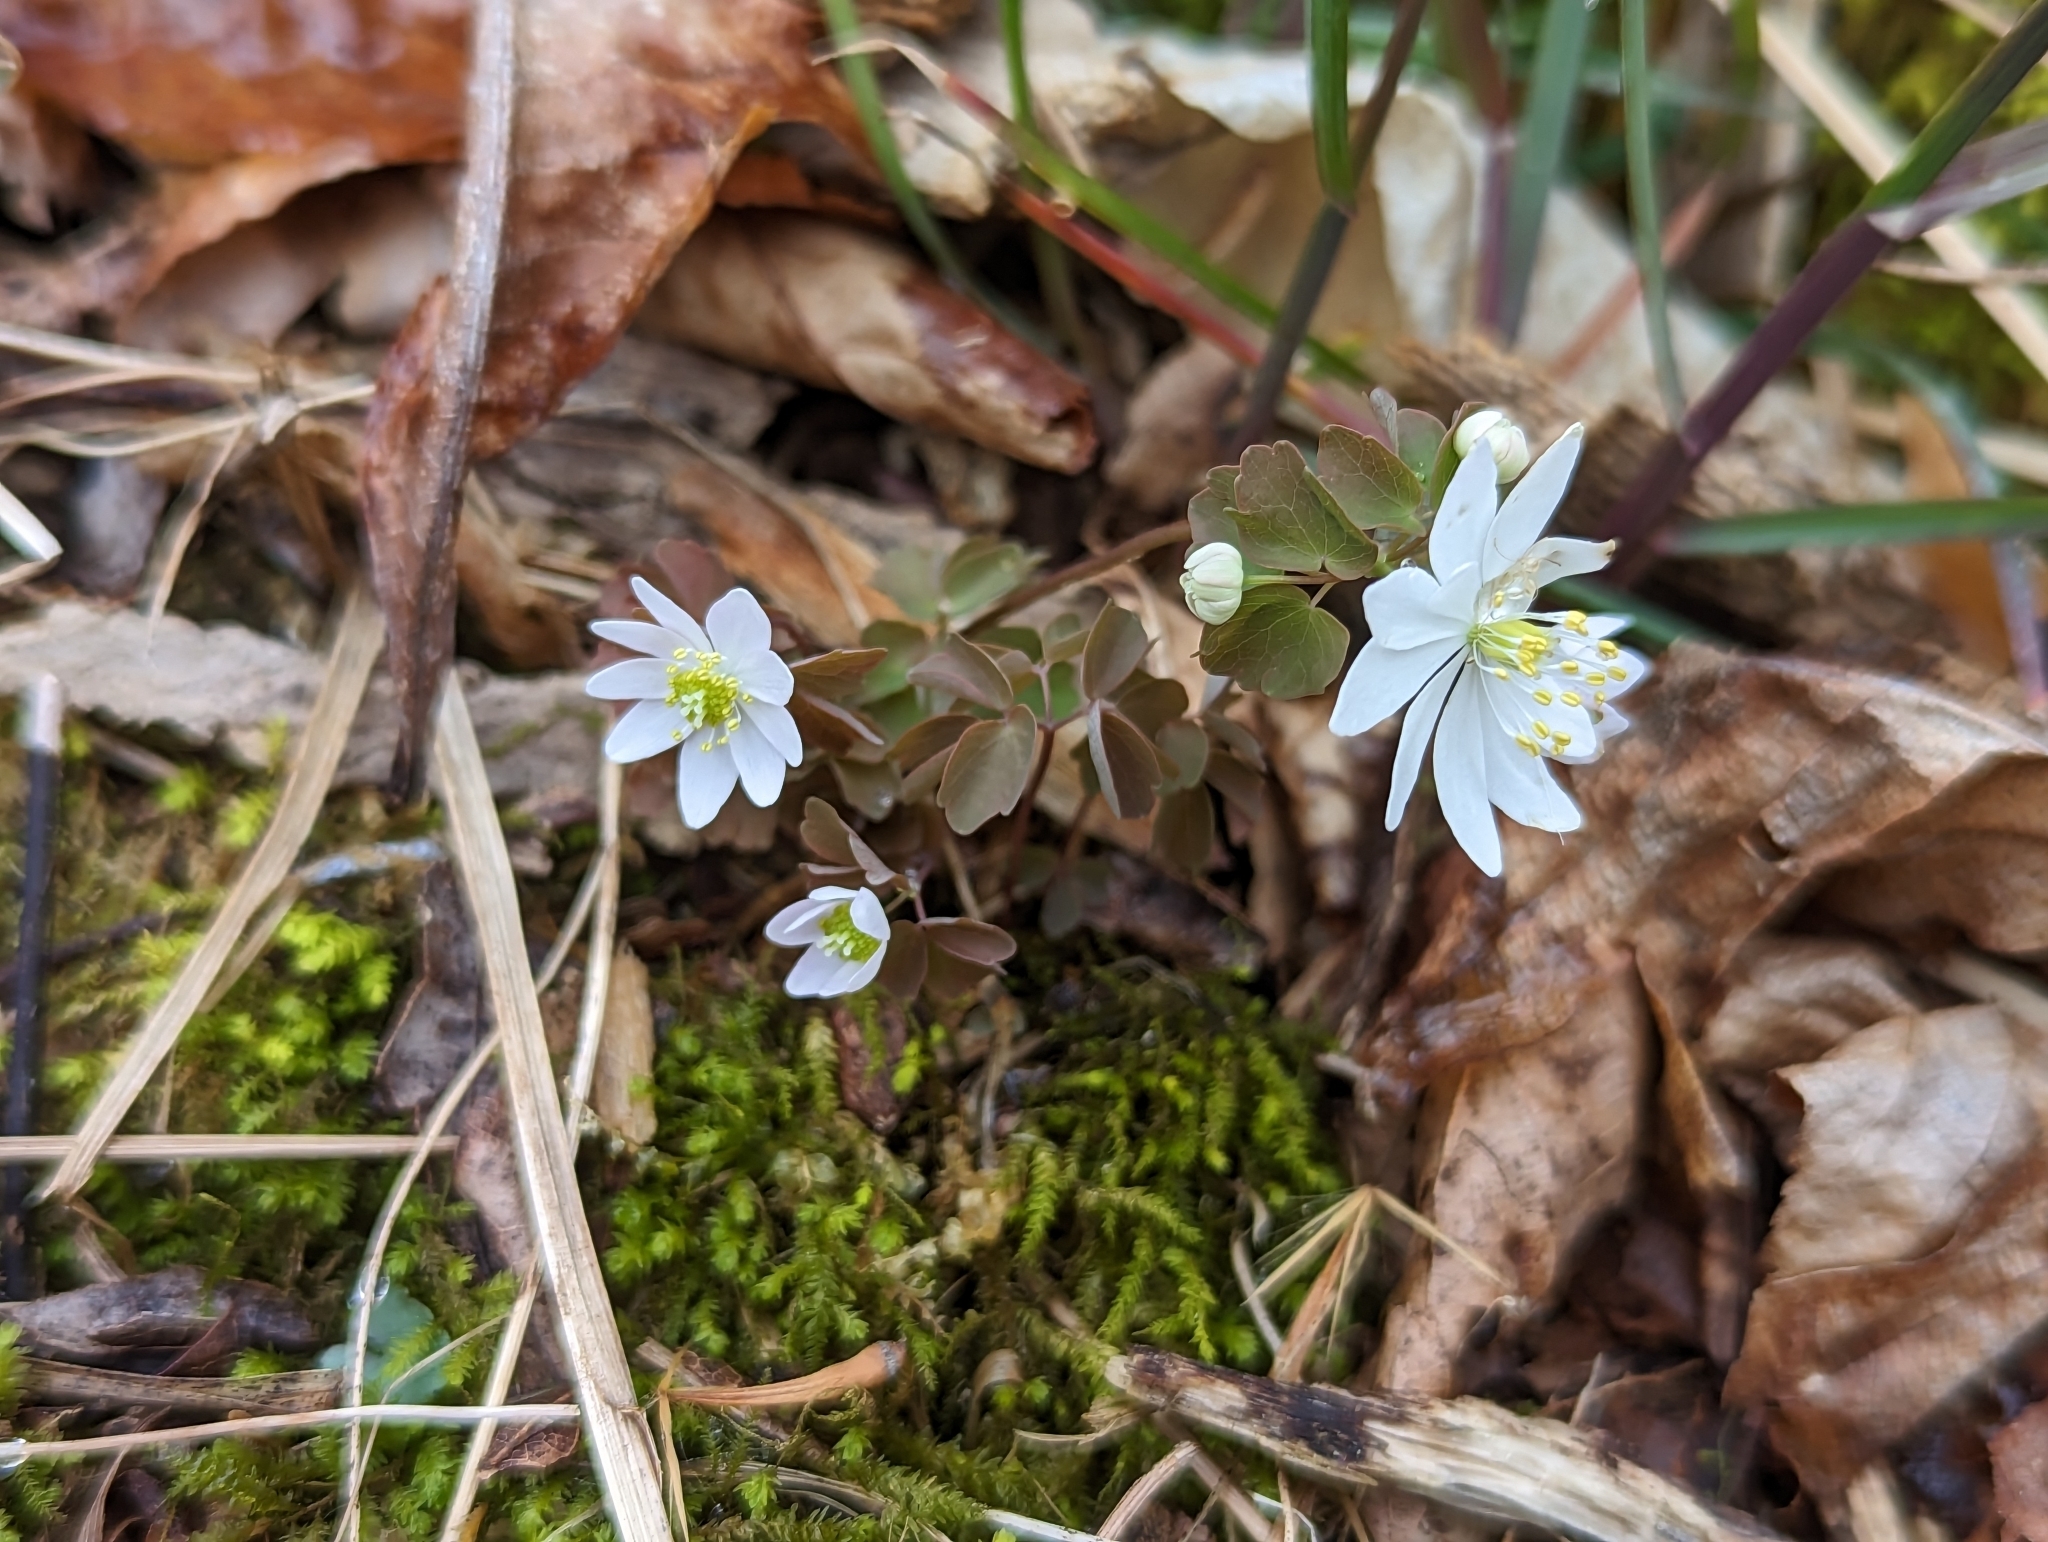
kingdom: Plantae
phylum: Tracheophyta
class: Magnoliopsida
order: Ranunculales
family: Ranunculaceae
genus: Thalictrum
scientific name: Thalictrum thalictroides
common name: Rue-anemone
